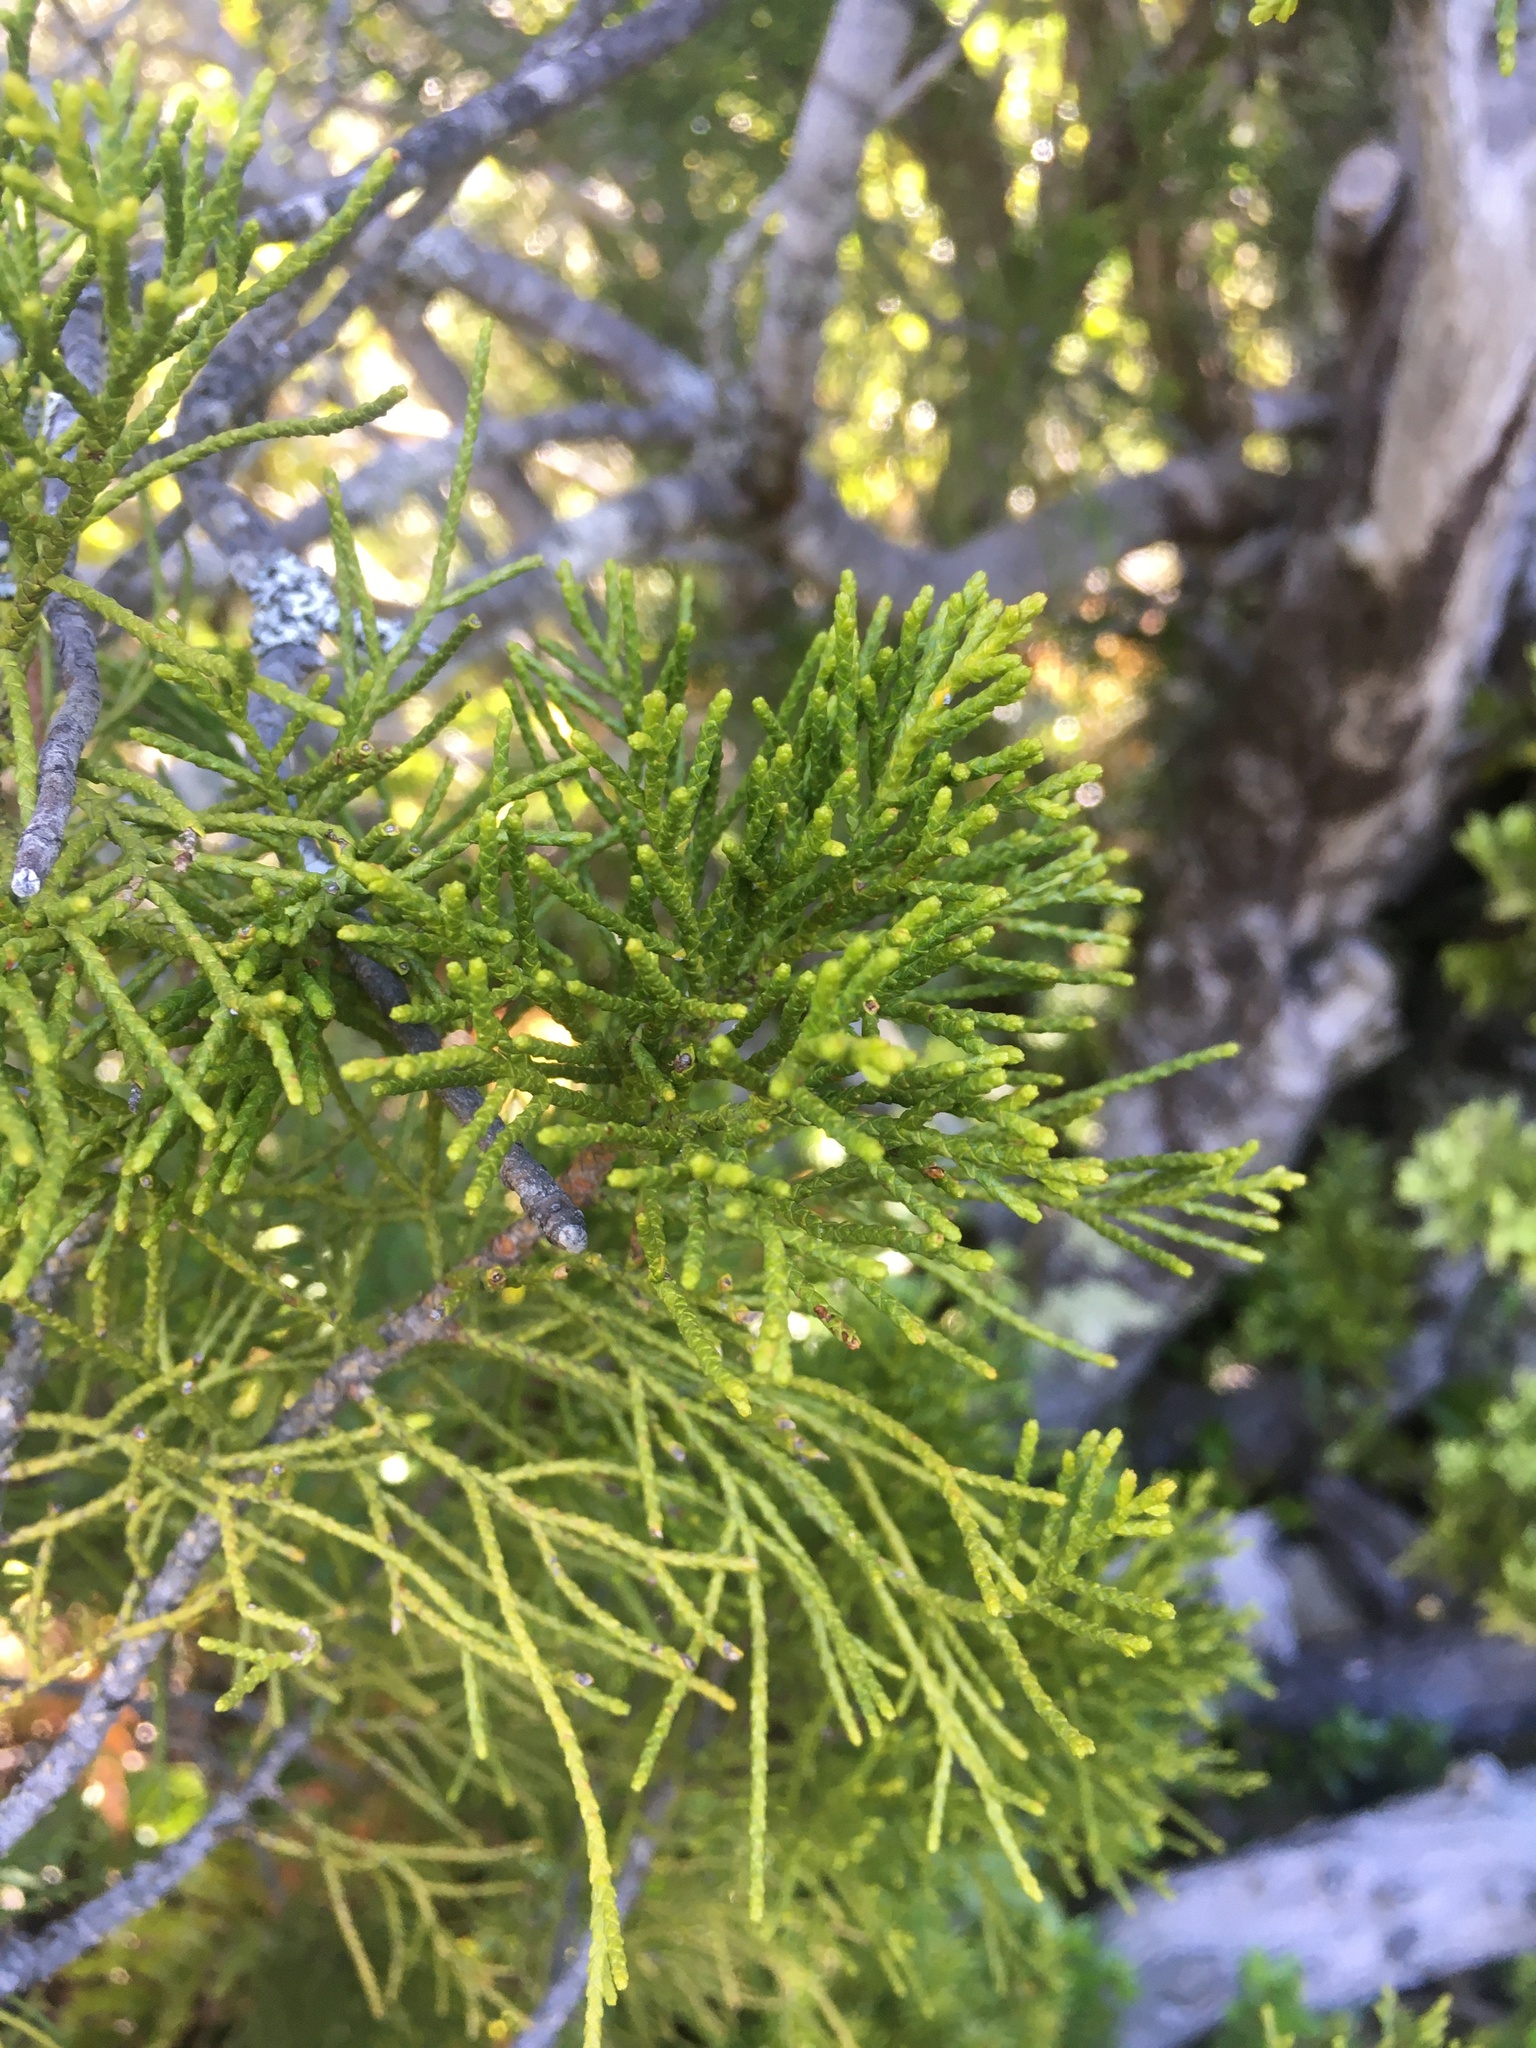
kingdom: Plantae
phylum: Tracheophyta
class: Pinopsida
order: Pinales
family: Podocarpaceae
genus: Halocarpus
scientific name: Halocarpus bidwillii
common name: Bog pine
